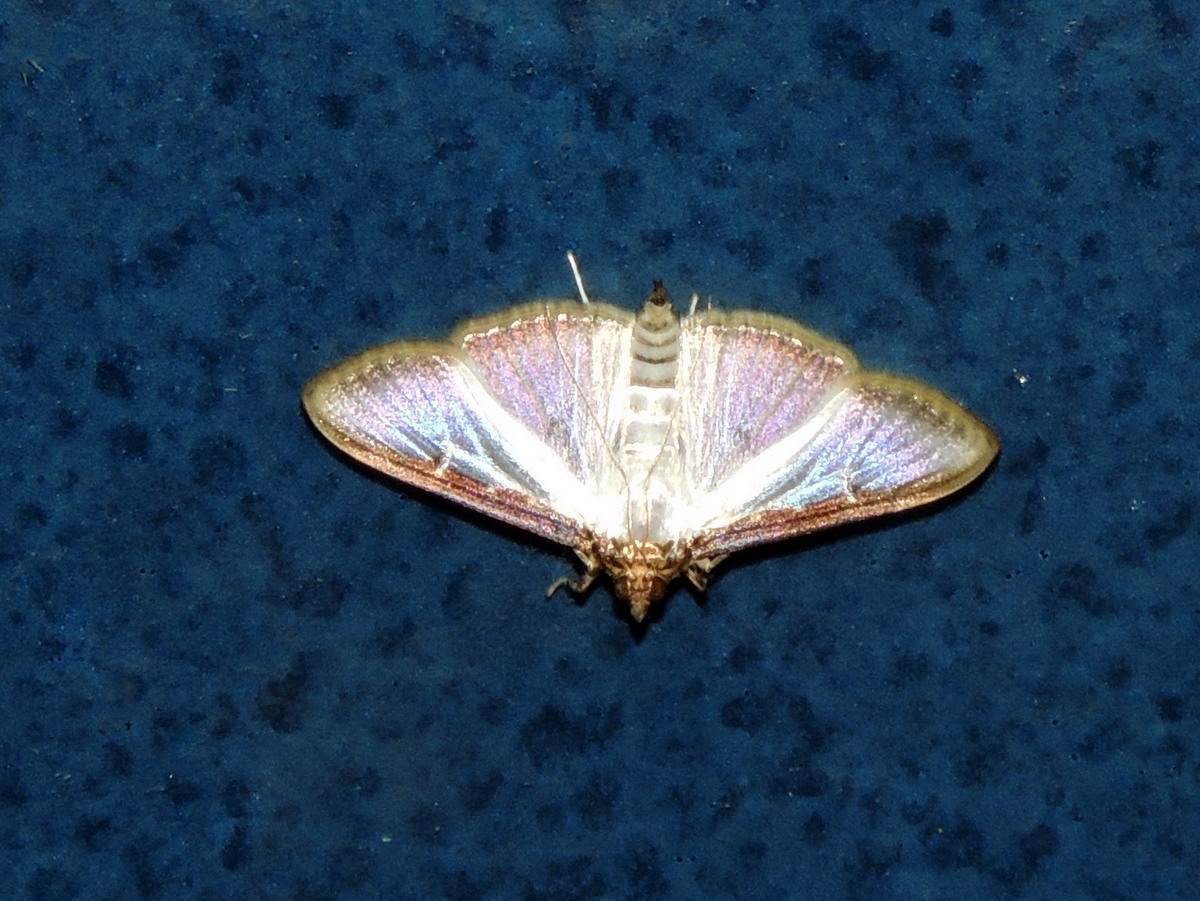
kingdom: Animalia
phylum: Arthropoda
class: Insecta
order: Lepidoptera
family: Crambidae
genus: Cydalima
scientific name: Cydalima
